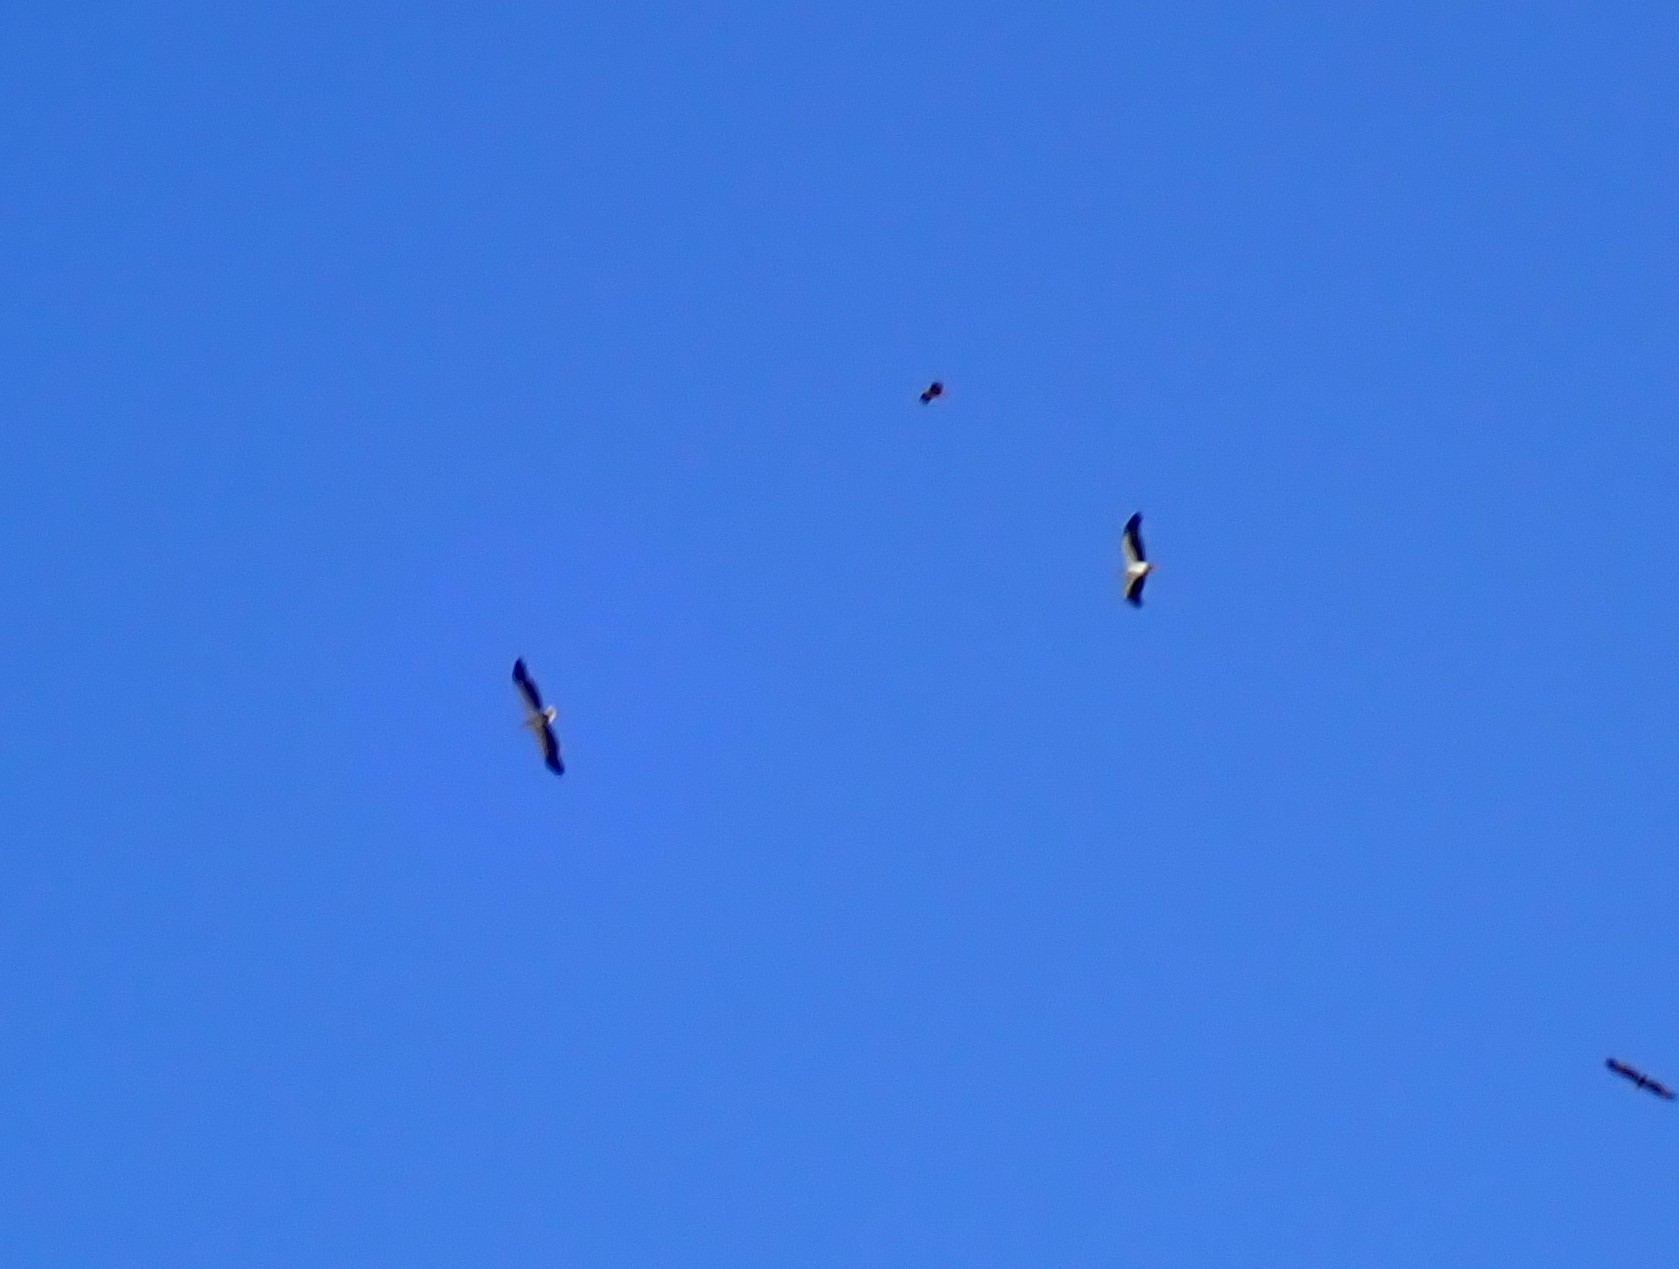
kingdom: Animalia
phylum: Chordata
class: Aves
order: Accipitriformes
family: Accipitridae
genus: Haliaeetus
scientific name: Haliaeetus leucogaster
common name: White-bellied sea eagle
